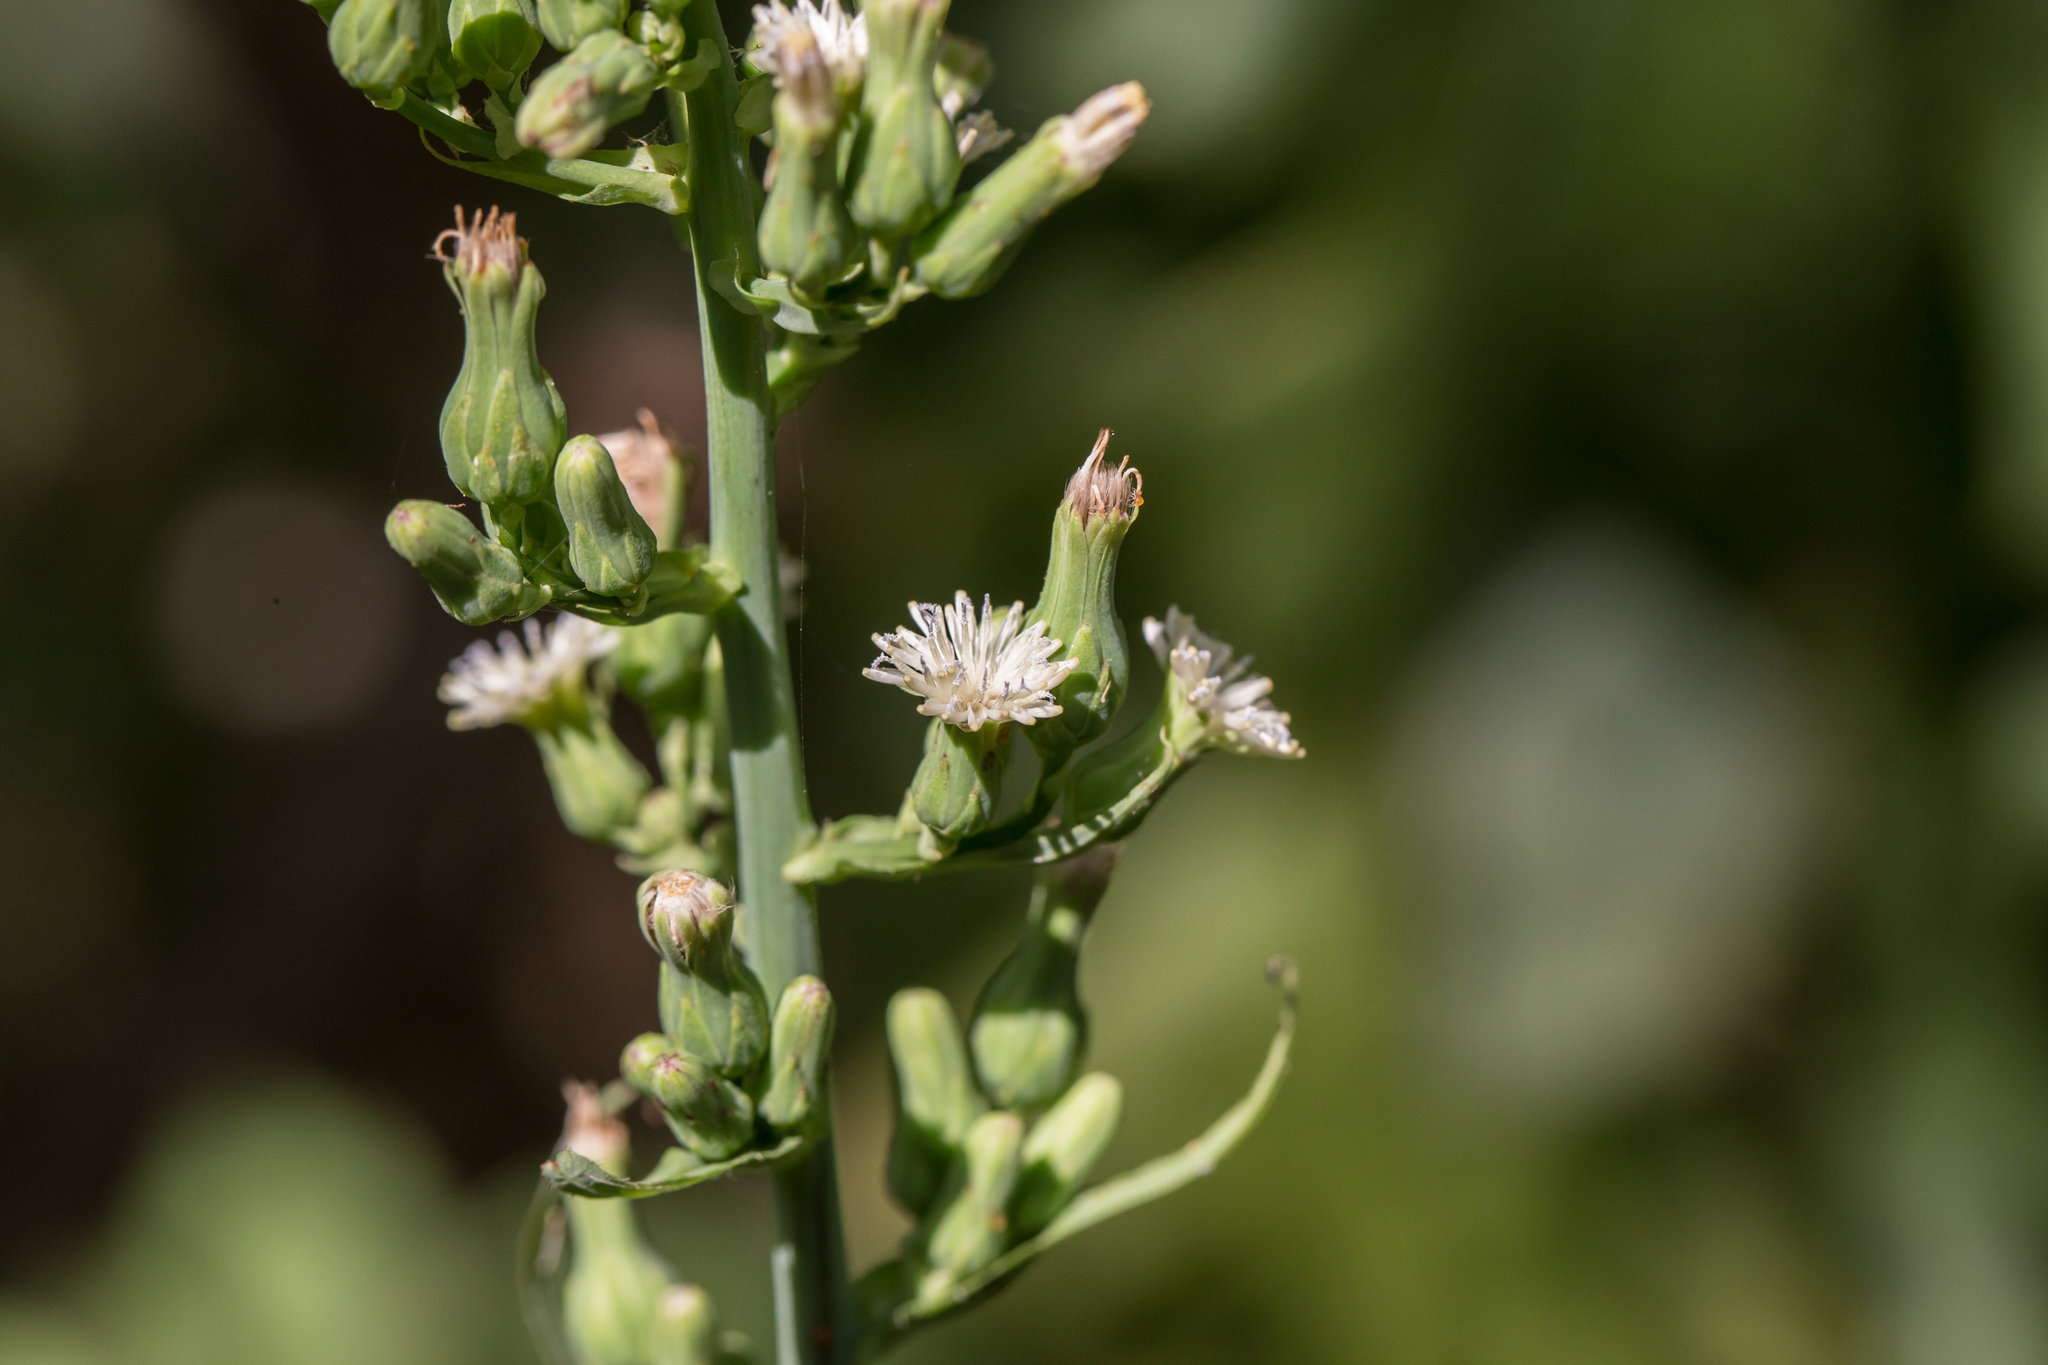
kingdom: Plantae
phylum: Tracheophyta
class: Magnoliopsida
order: Asterales
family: Asteraceae
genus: Lactuca
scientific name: Lactuca biennis
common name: Blue wood lettuce
